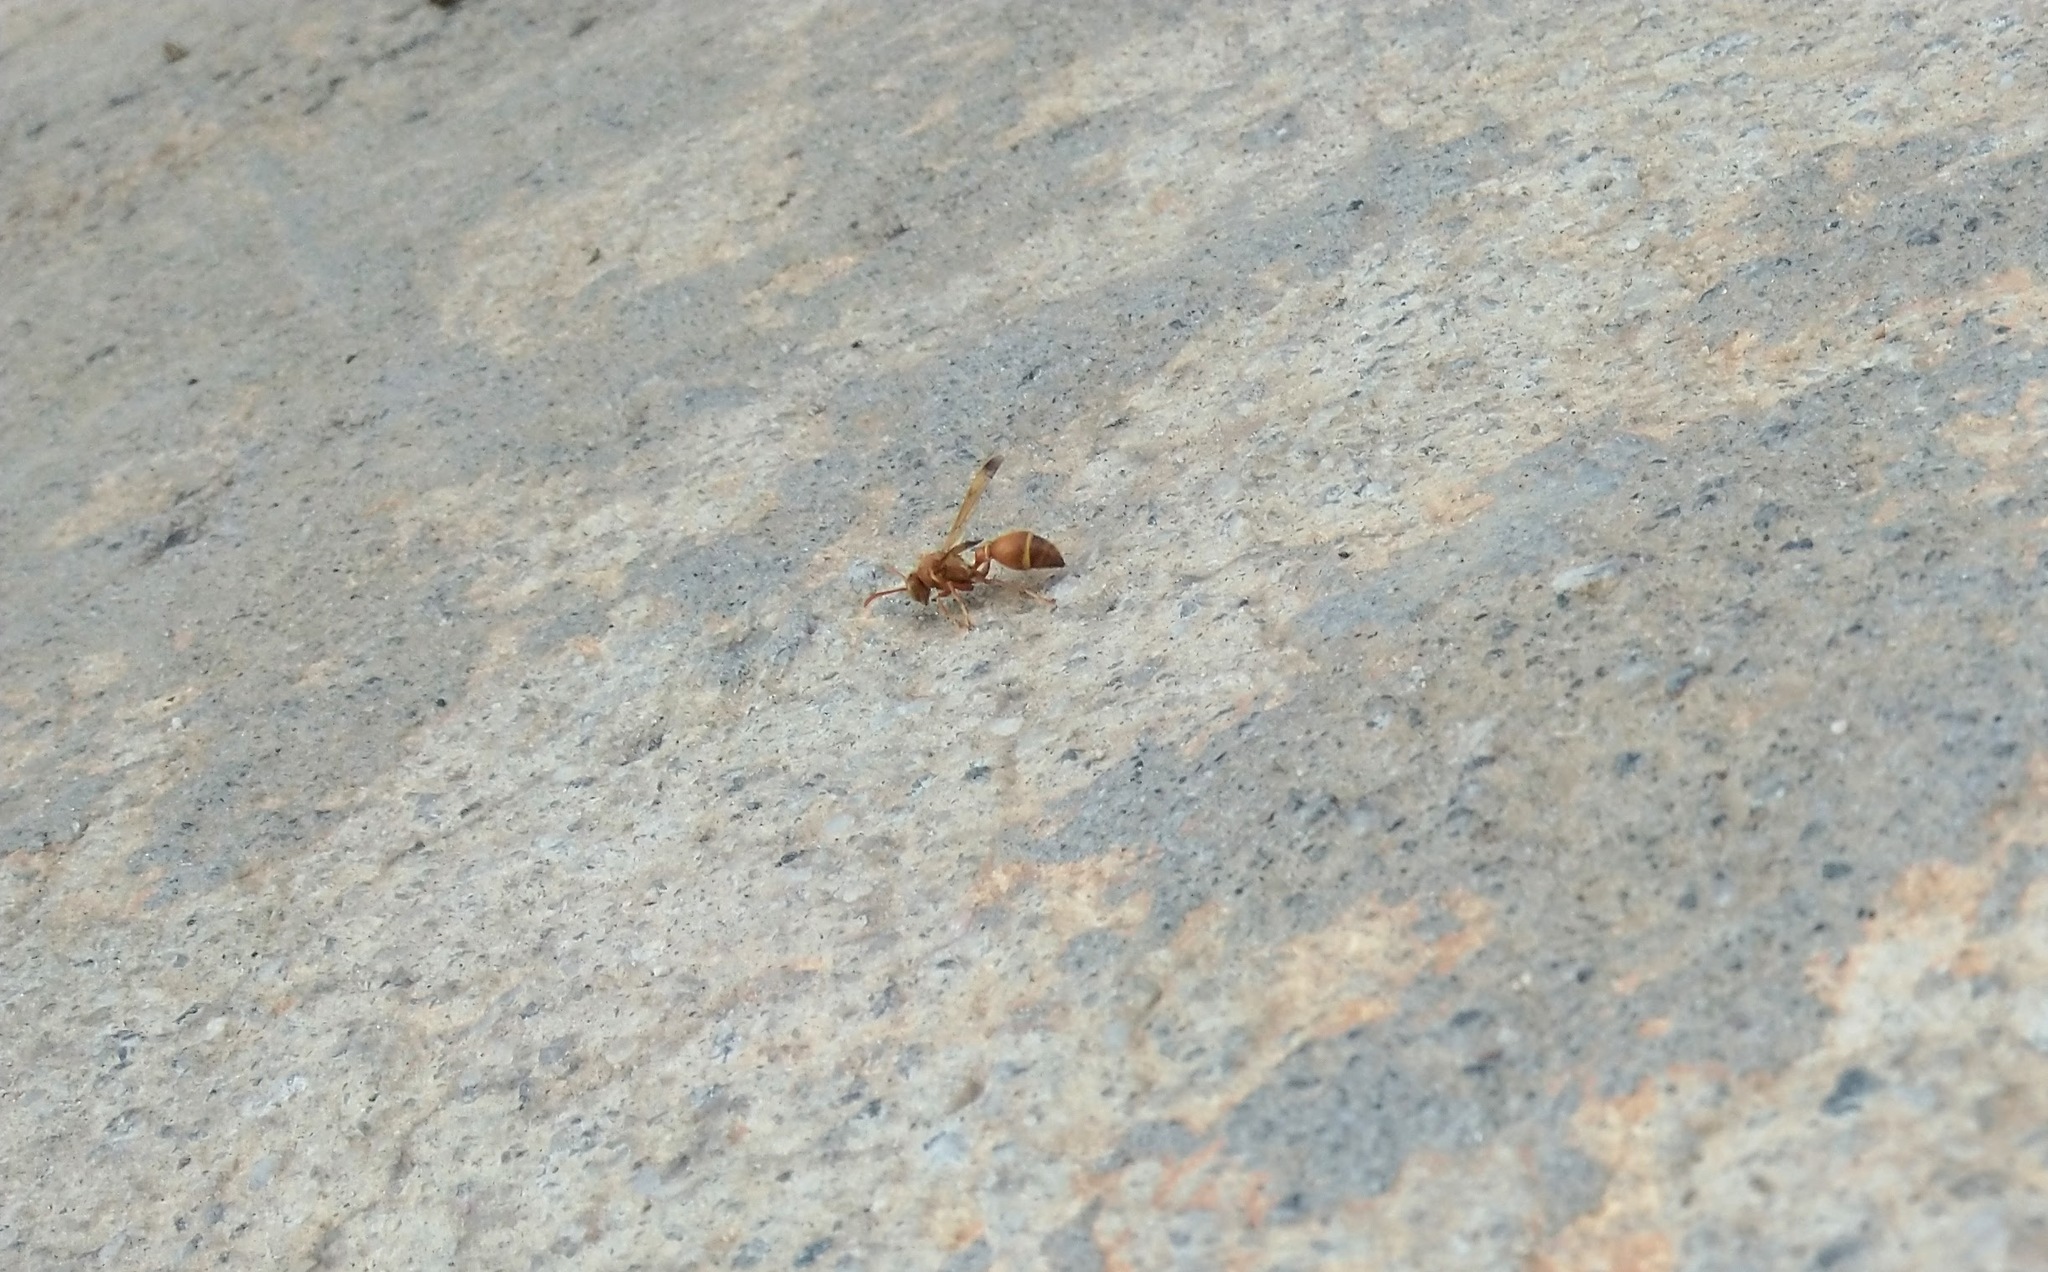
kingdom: Animalia
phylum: Arthropoda
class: Insecta
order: Hymenoptera
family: Vespidae
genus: Ropalidia
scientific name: Ropalidia marginata
